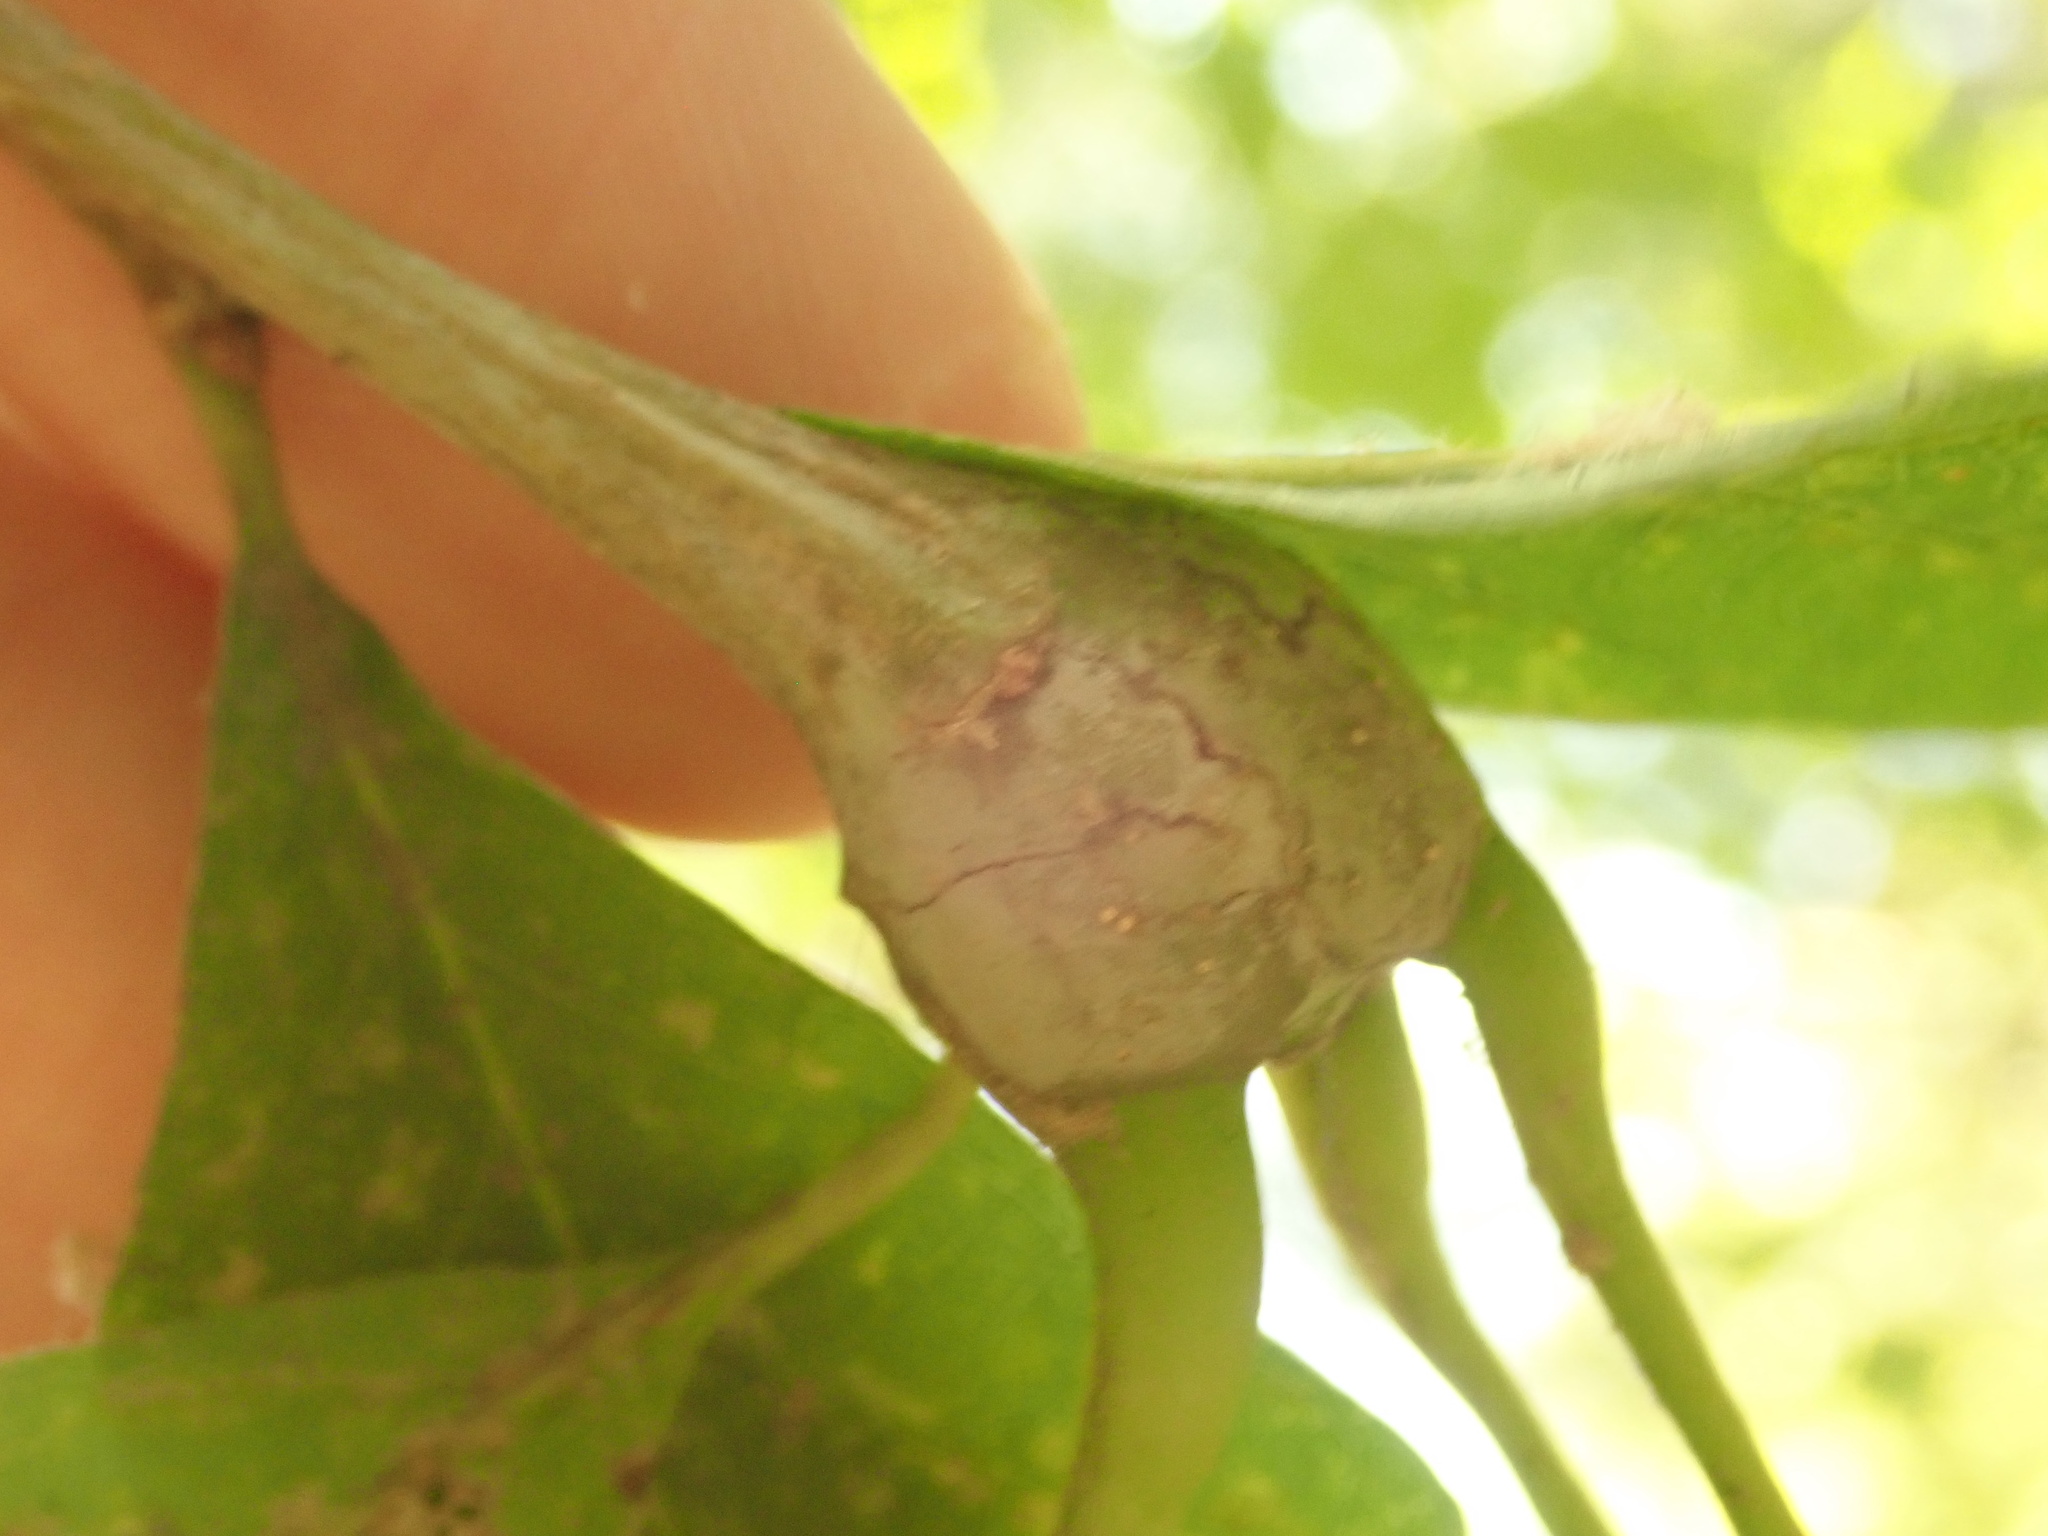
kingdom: Animalia
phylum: Arthropoda
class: Insecta
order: Hymenoptera
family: Cynipidae
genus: Callirhytis
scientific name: Callirhytis clavula
